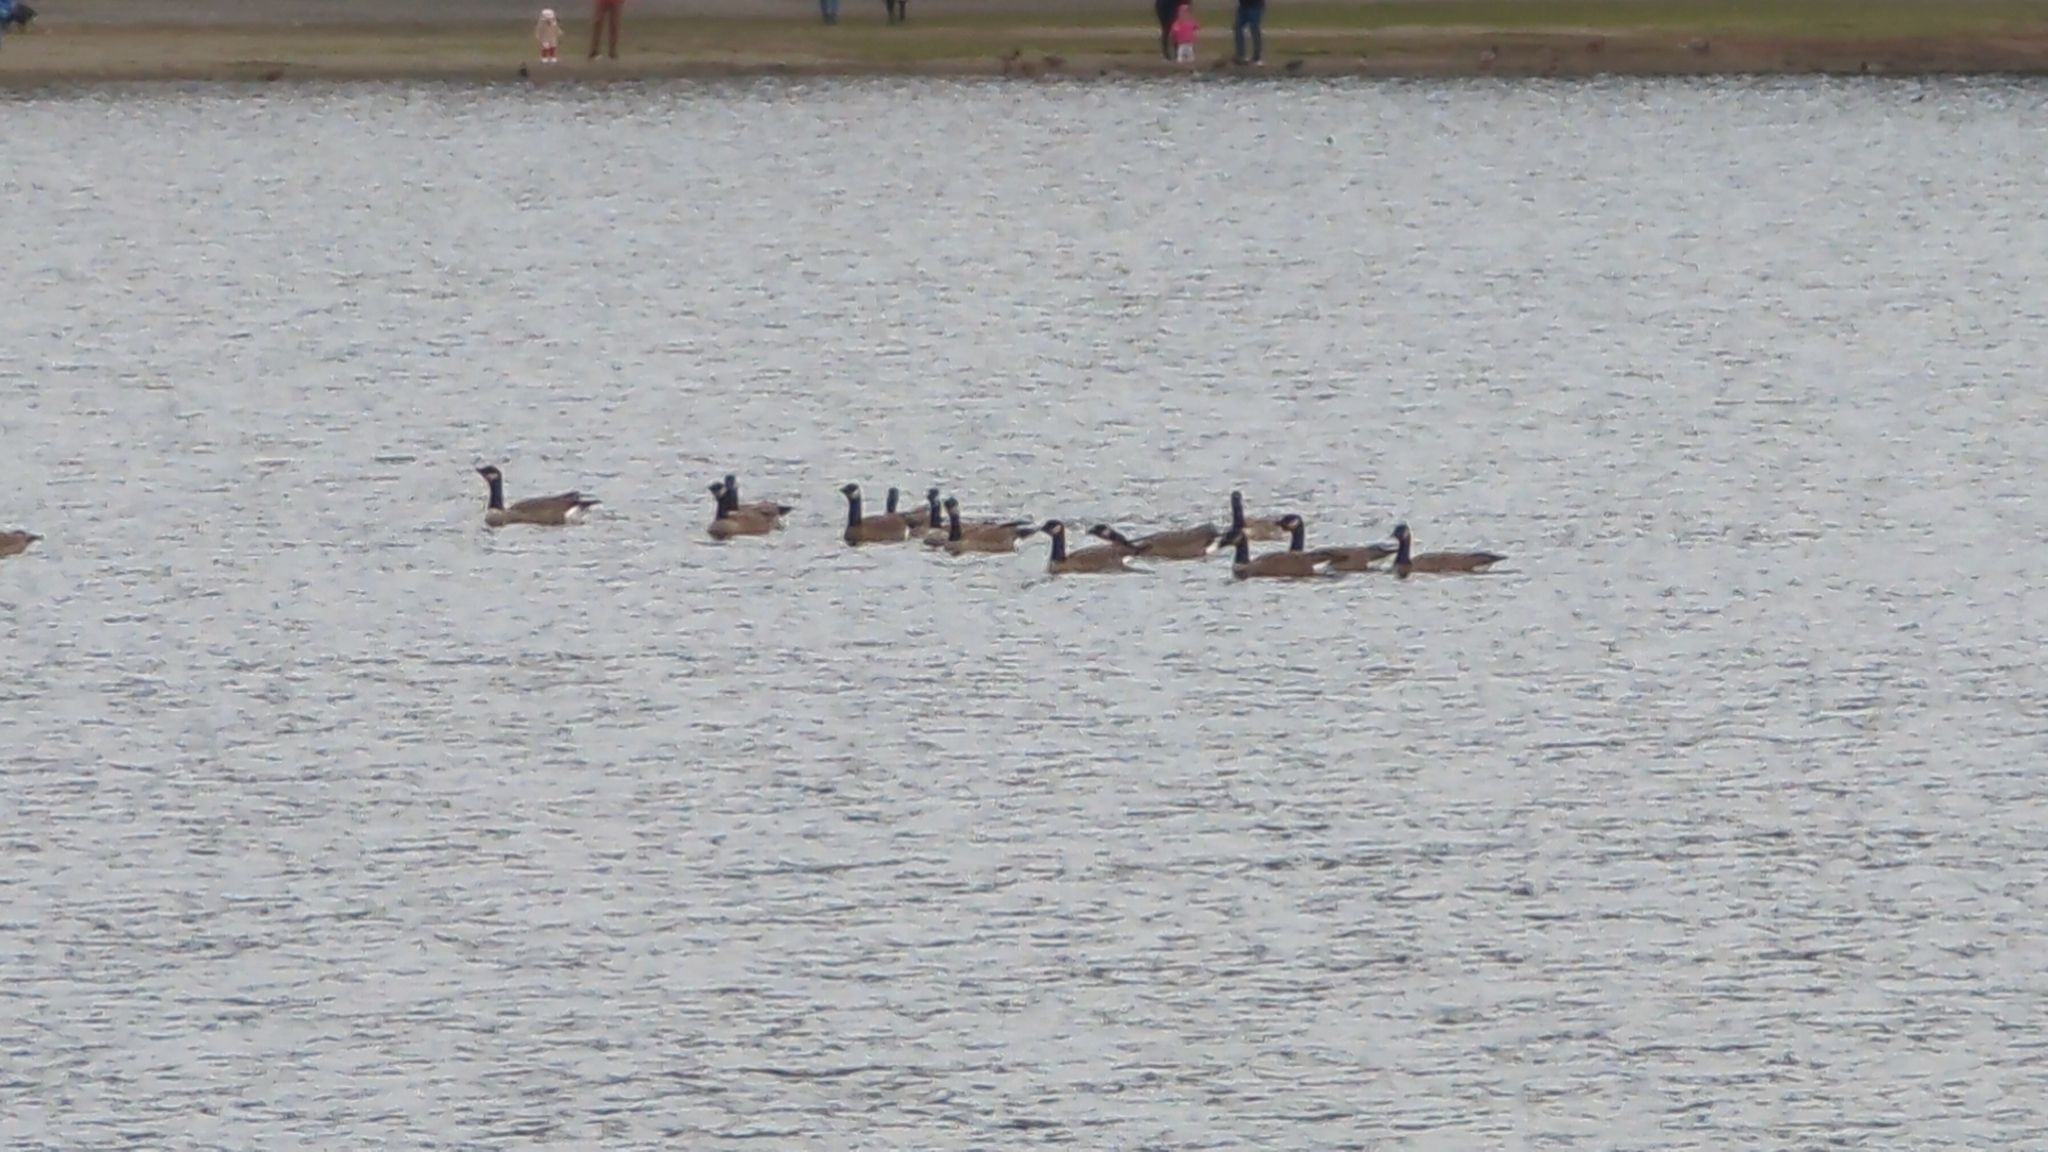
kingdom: Animalia
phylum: Chordata
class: Aves
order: Anseriformes
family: Anatidae
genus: Branta
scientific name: Branta hutchinsii
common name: Cackling goose
